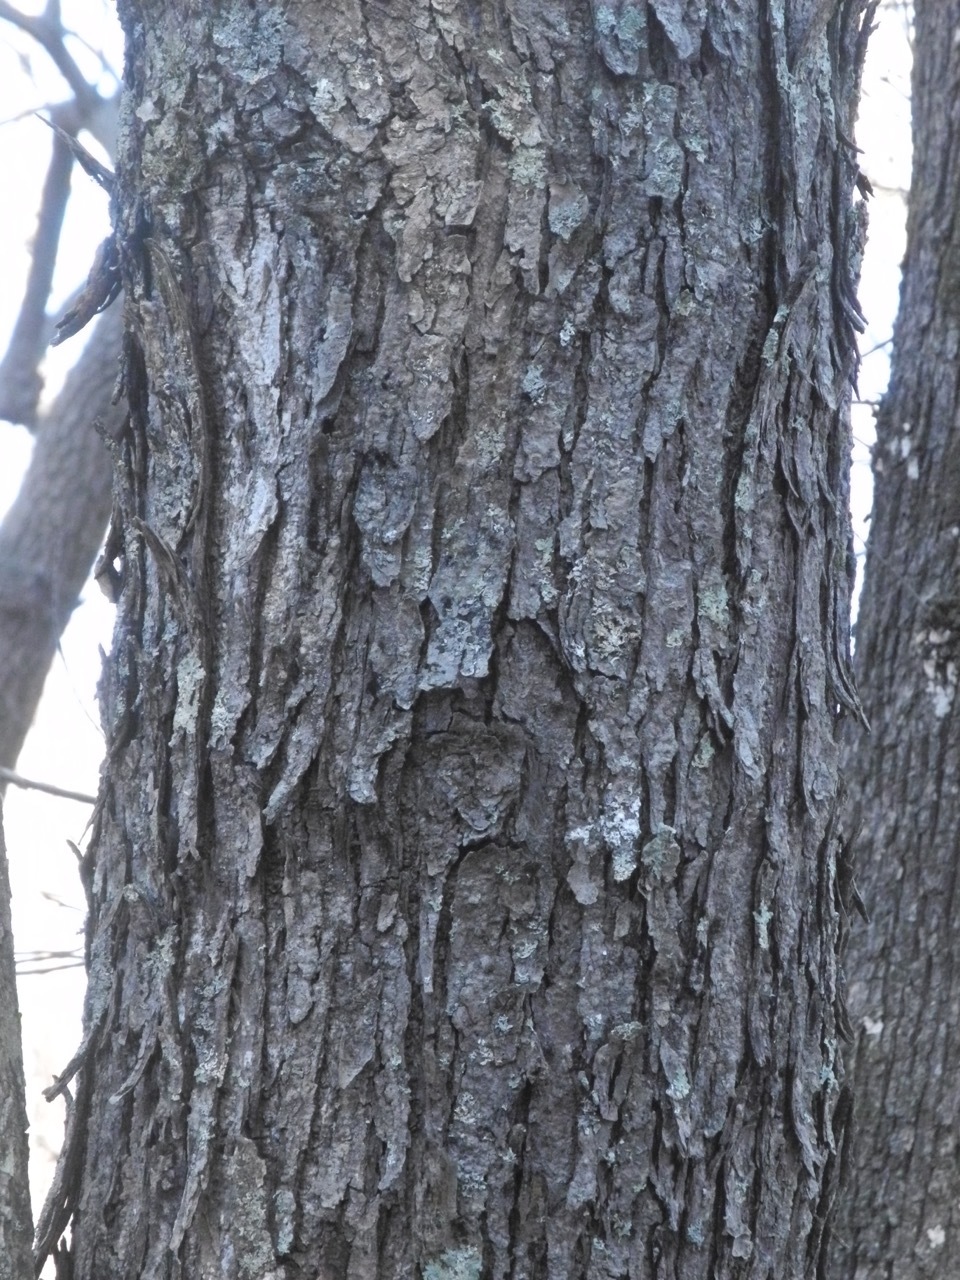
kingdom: Plantae
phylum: Tracheophyta
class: Magnoliopsida
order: Fagales
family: Fagaceae
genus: Quercus
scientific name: Quercus stellata
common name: Post oak
